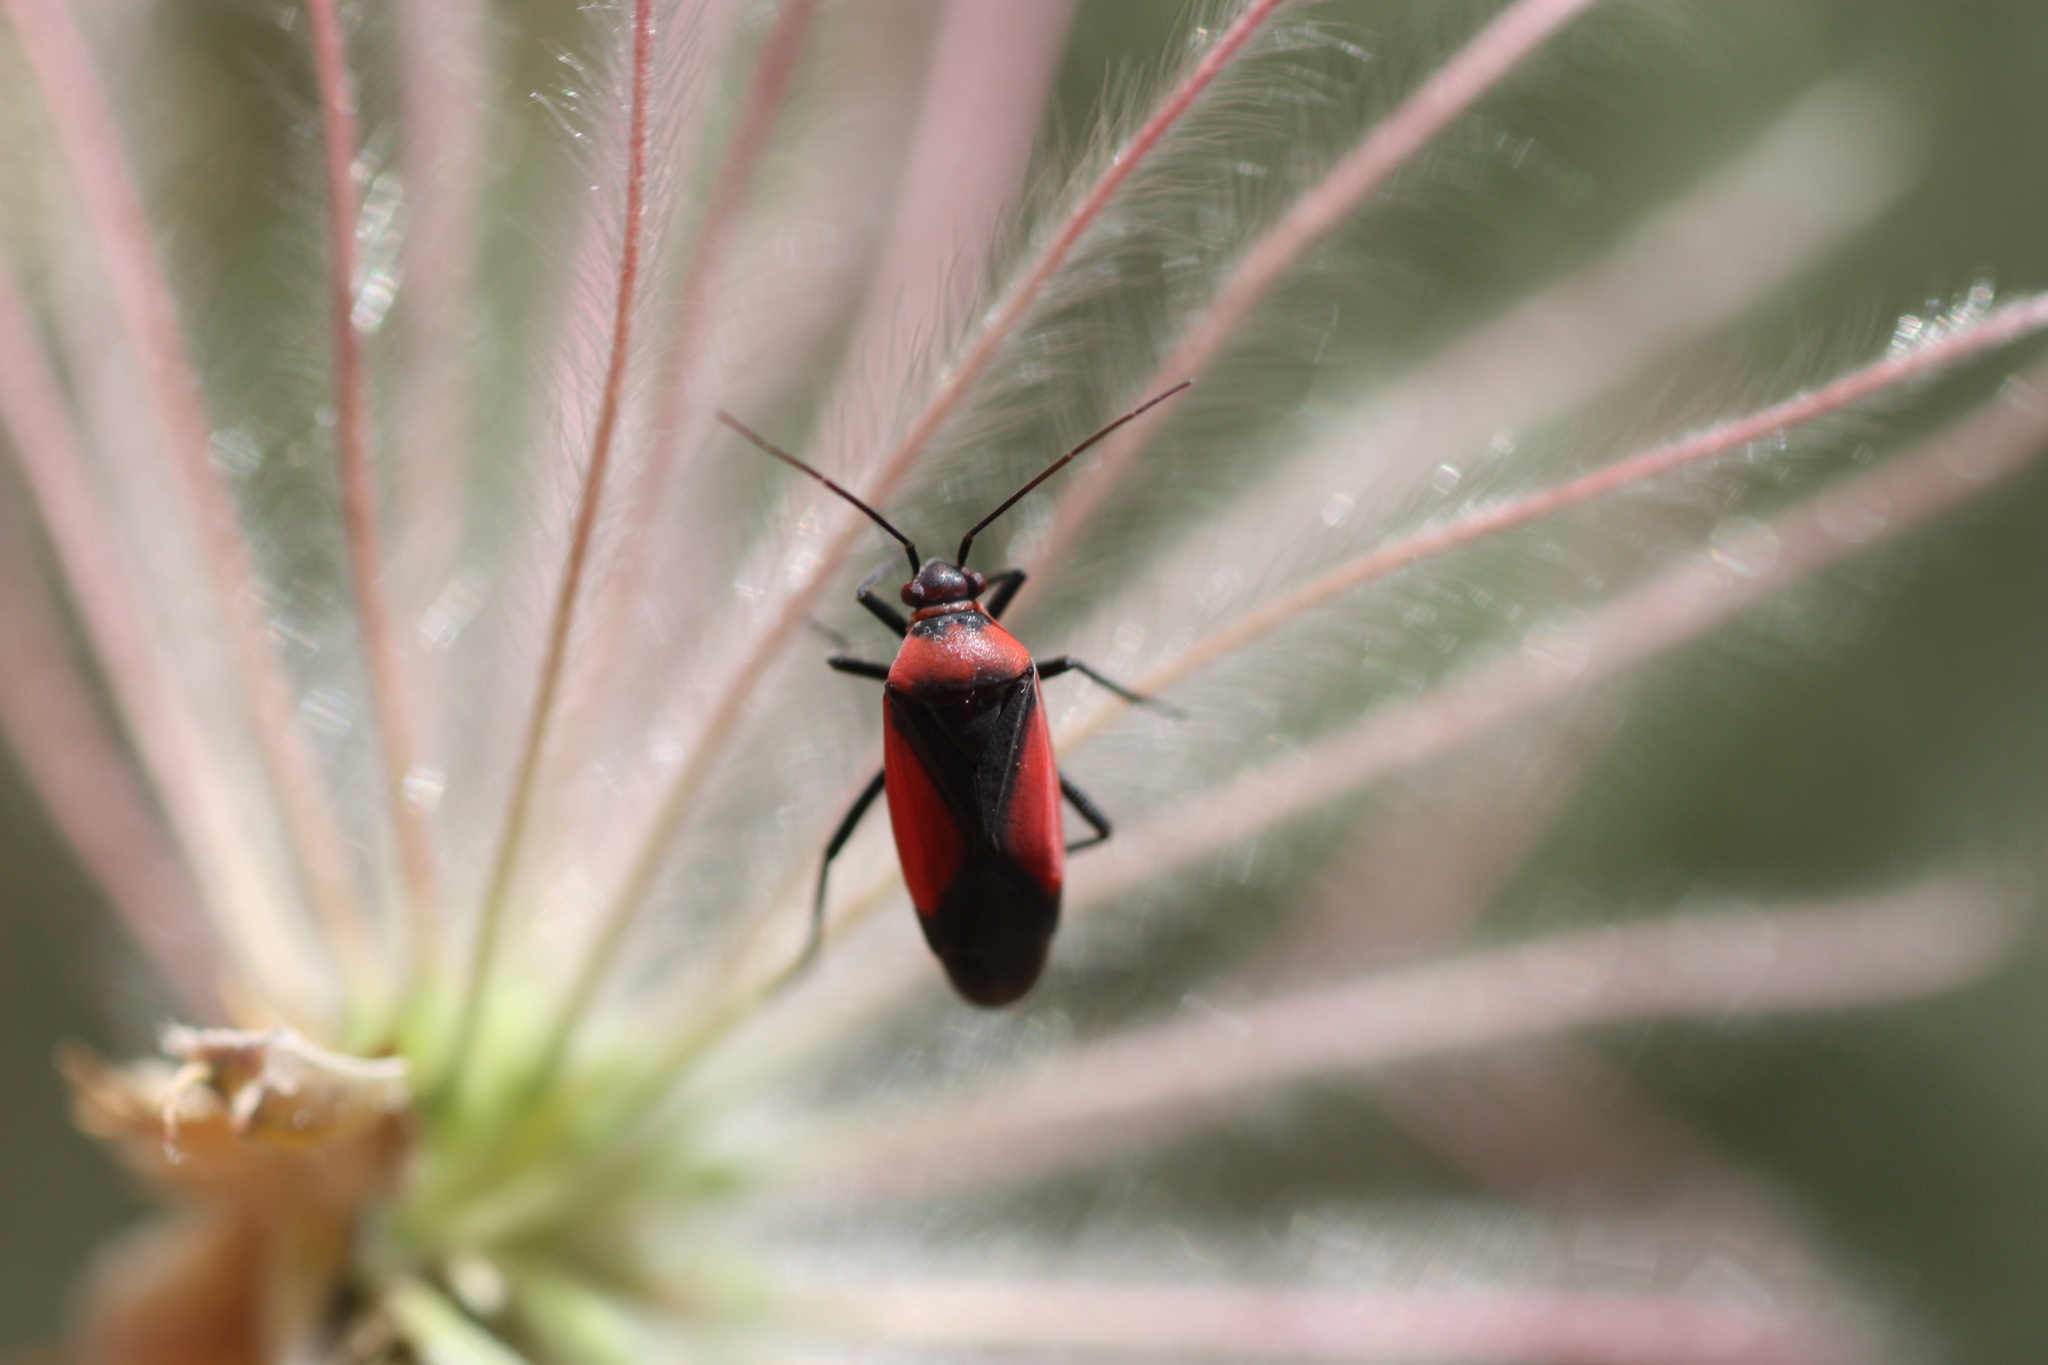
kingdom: Animalia
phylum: Arthropoda
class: Insecta
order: Hemiptera
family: Miridae
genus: Oncerometopus
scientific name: Oncerometopus atriscutis
